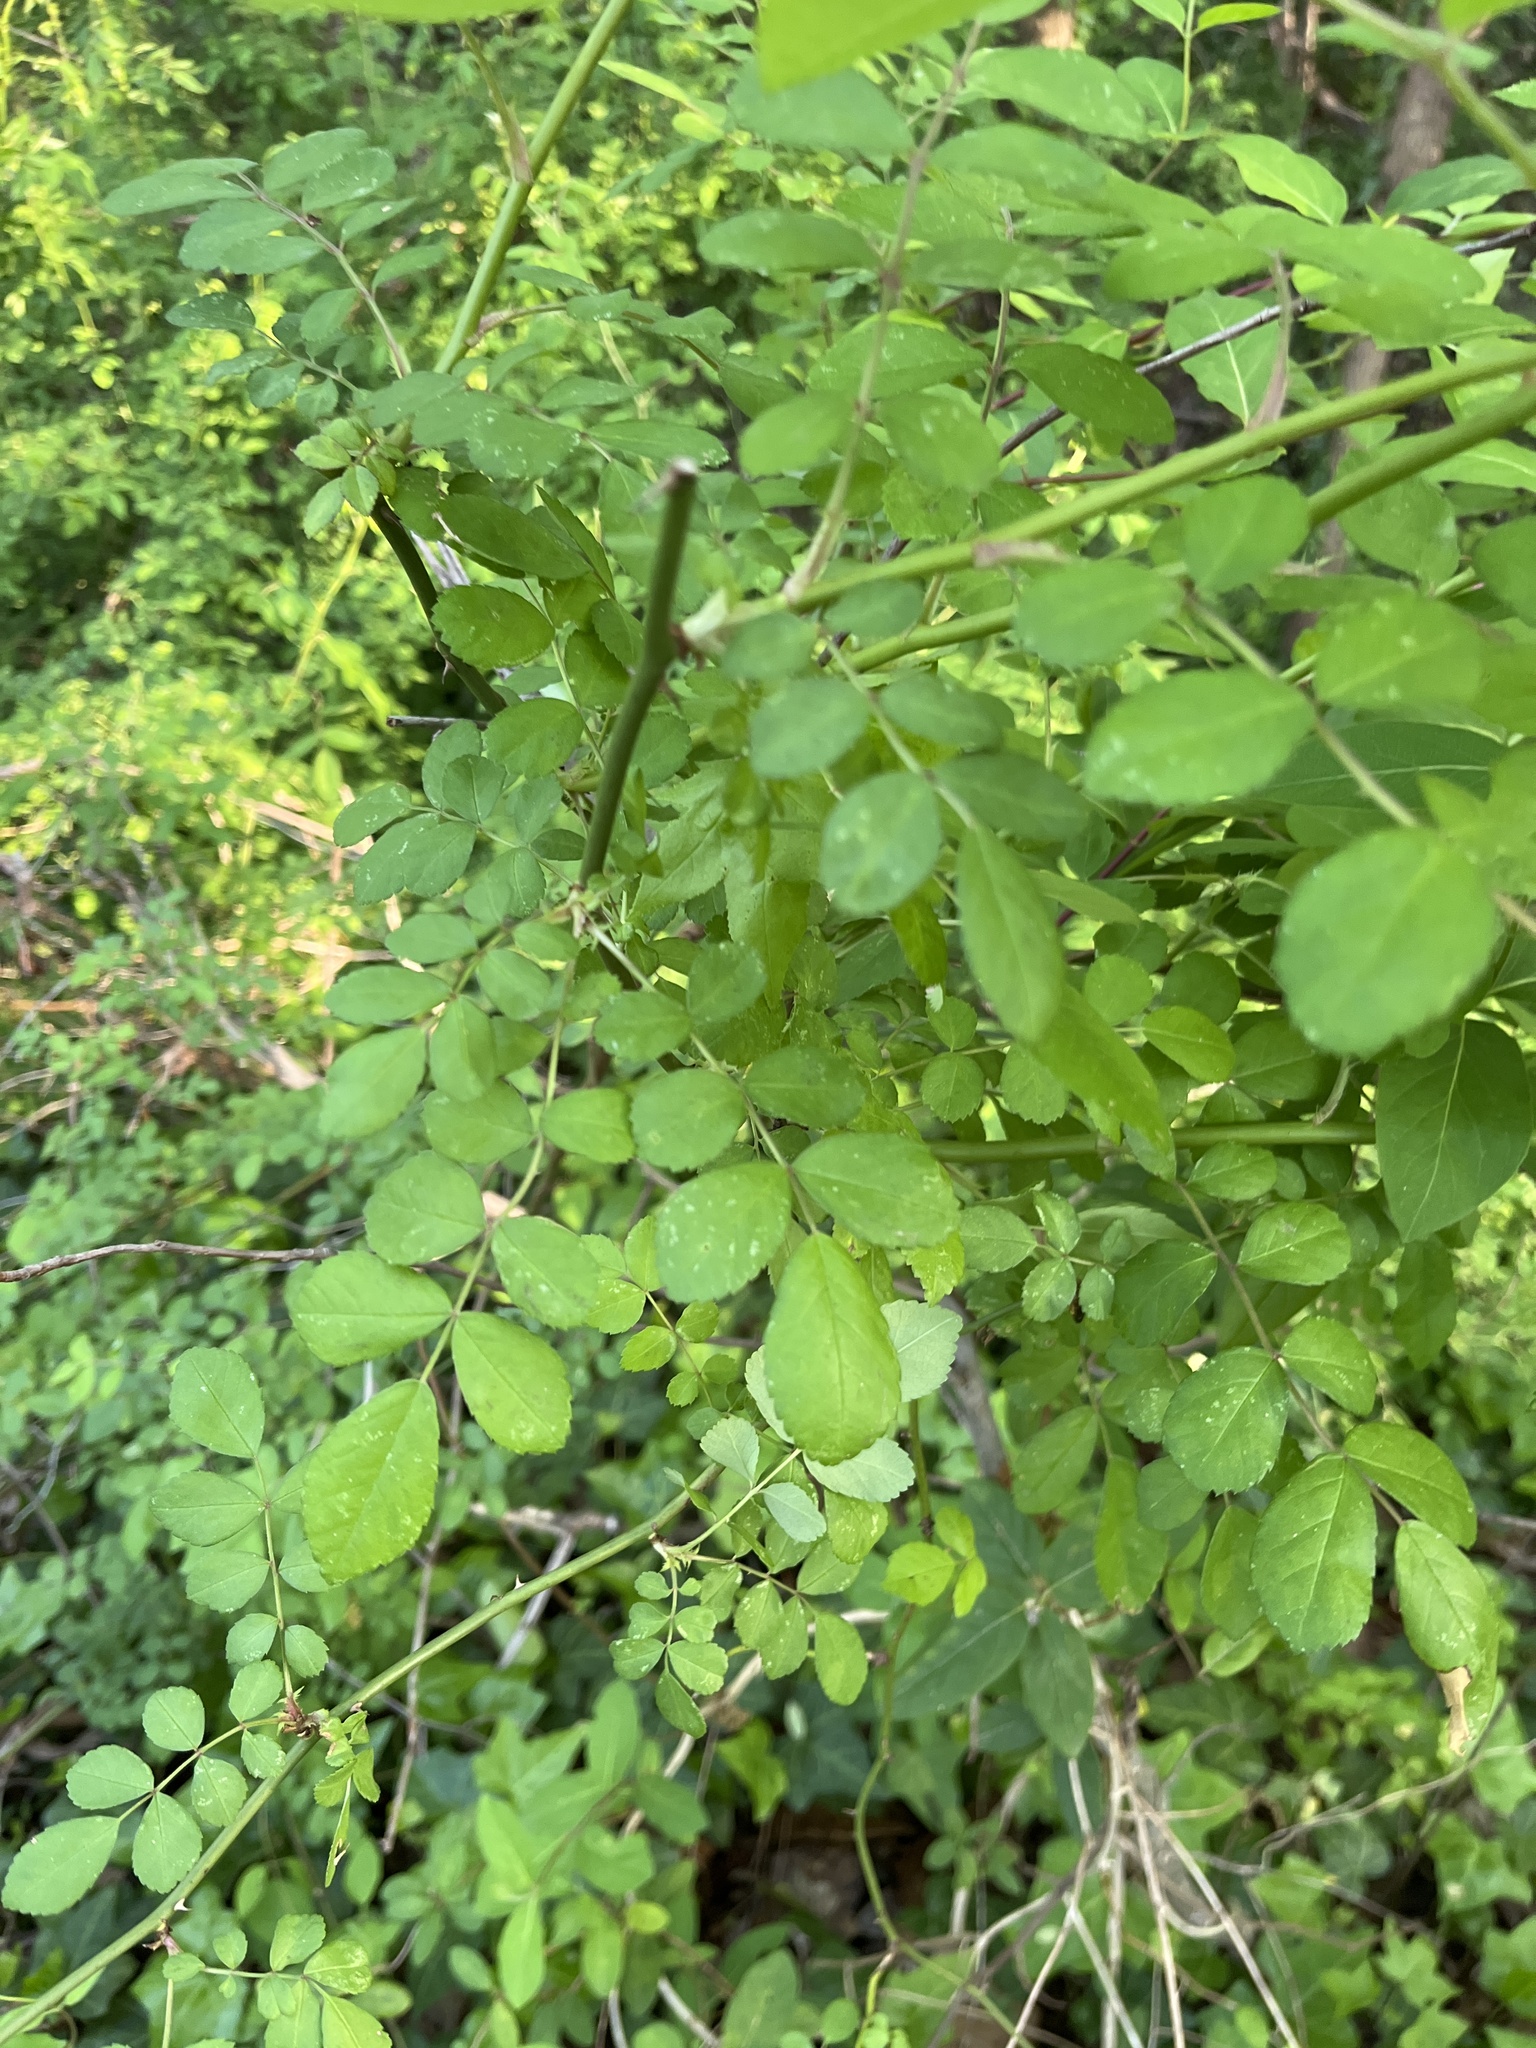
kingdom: Plantae
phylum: Tracheophyta
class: Magnoliopsida
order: Rosales
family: Rosaceae
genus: Rosa
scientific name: Rosa multiflora
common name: Multiflora rose
